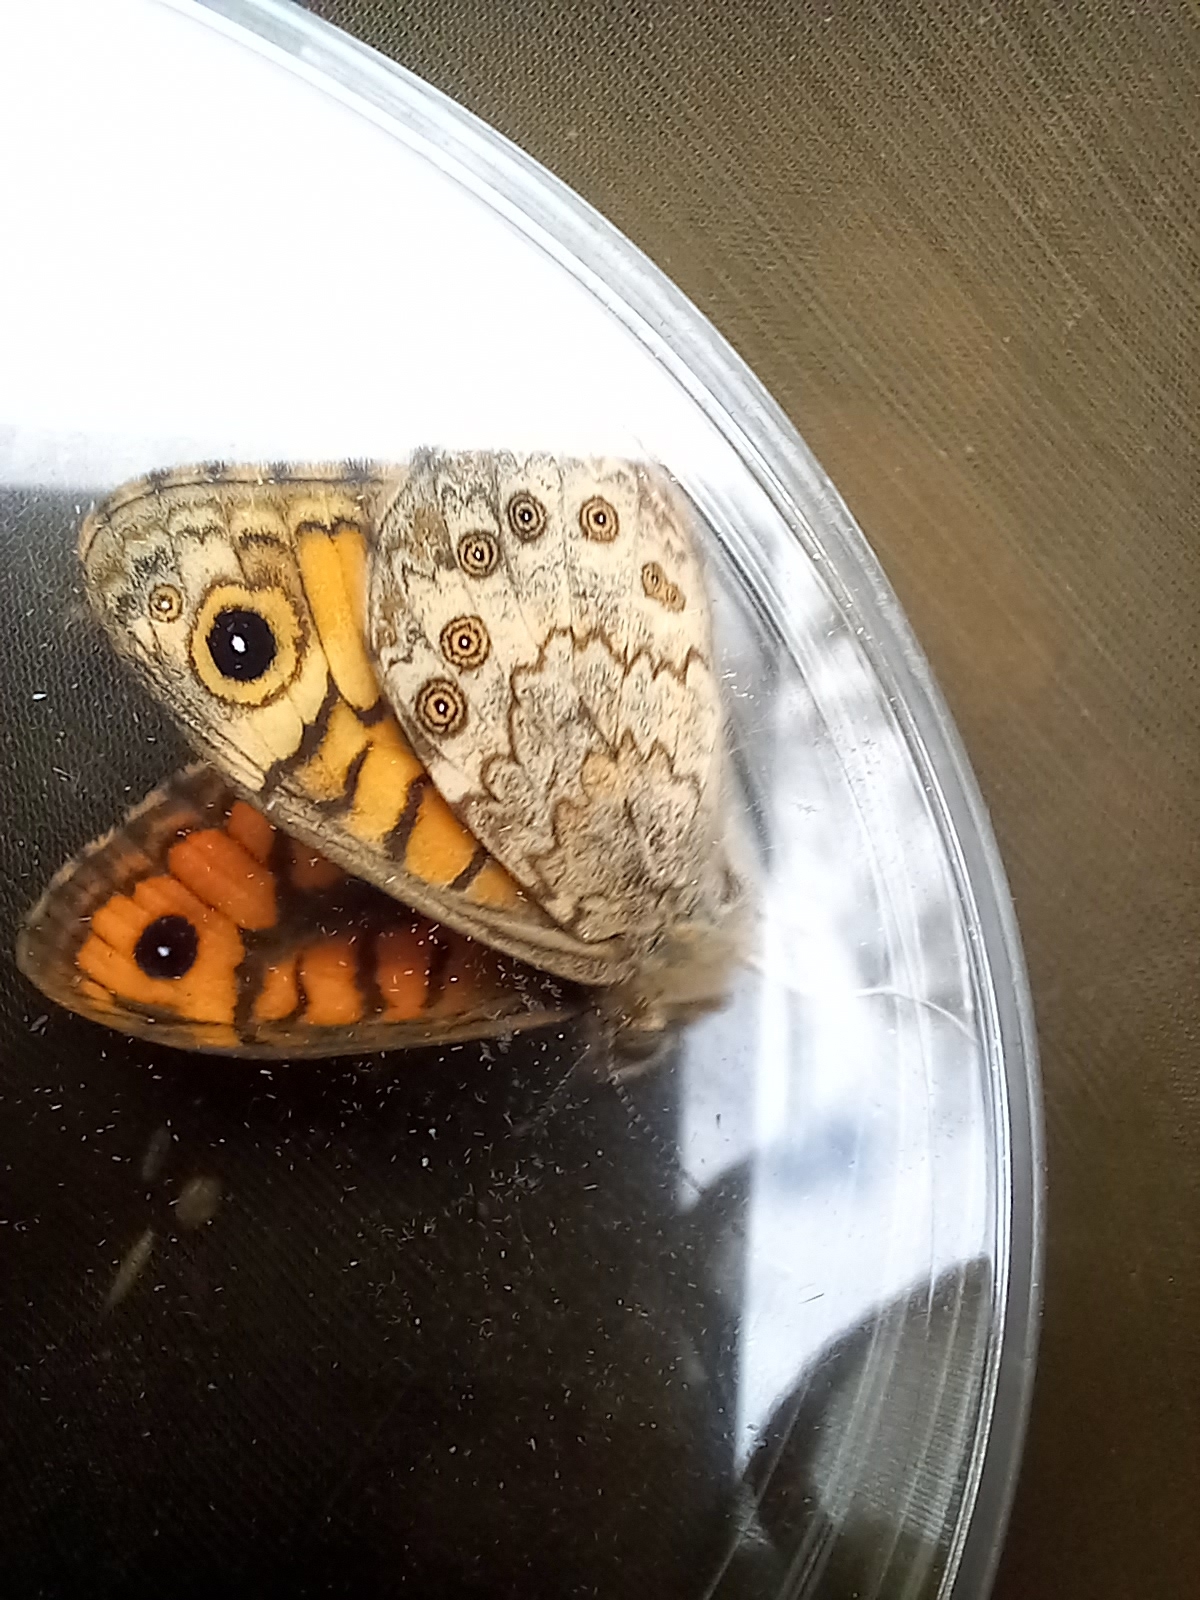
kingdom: Animalia
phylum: Arthropoda
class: Insecta
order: Lepidoptera
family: Nymphalidae
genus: Pararge
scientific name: Pararge Lasiommata megera
